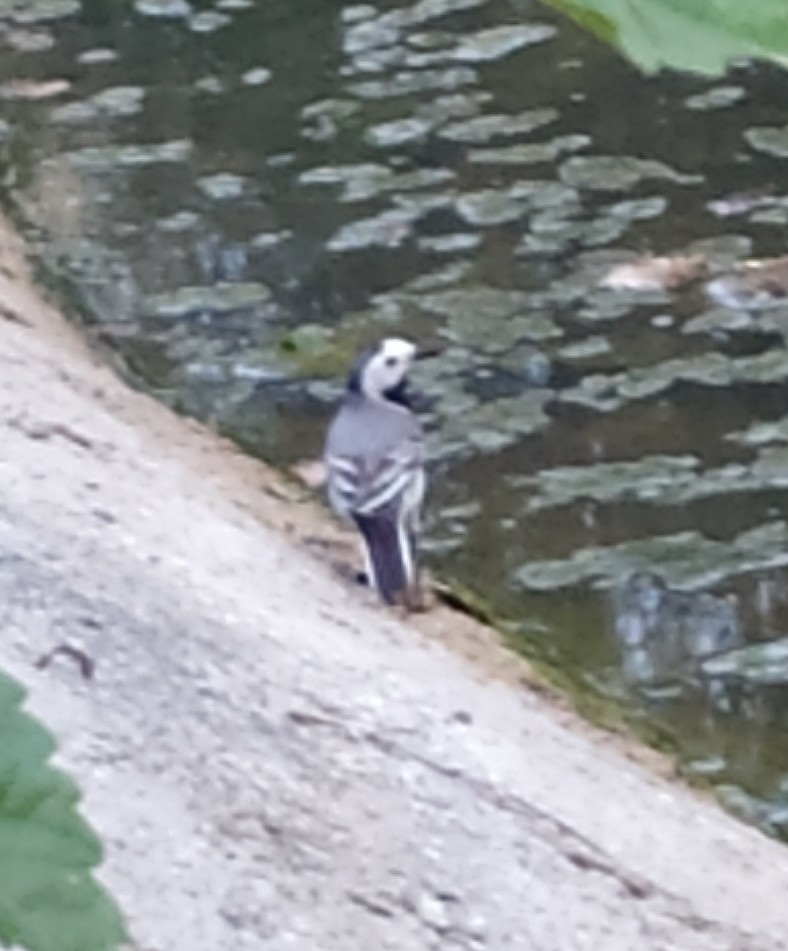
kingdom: Animalia
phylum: Chordata
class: Aves
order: Passeriformes
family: Motacillidae
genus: Motacilla
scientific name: Motacilla alba
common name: White wagtail
